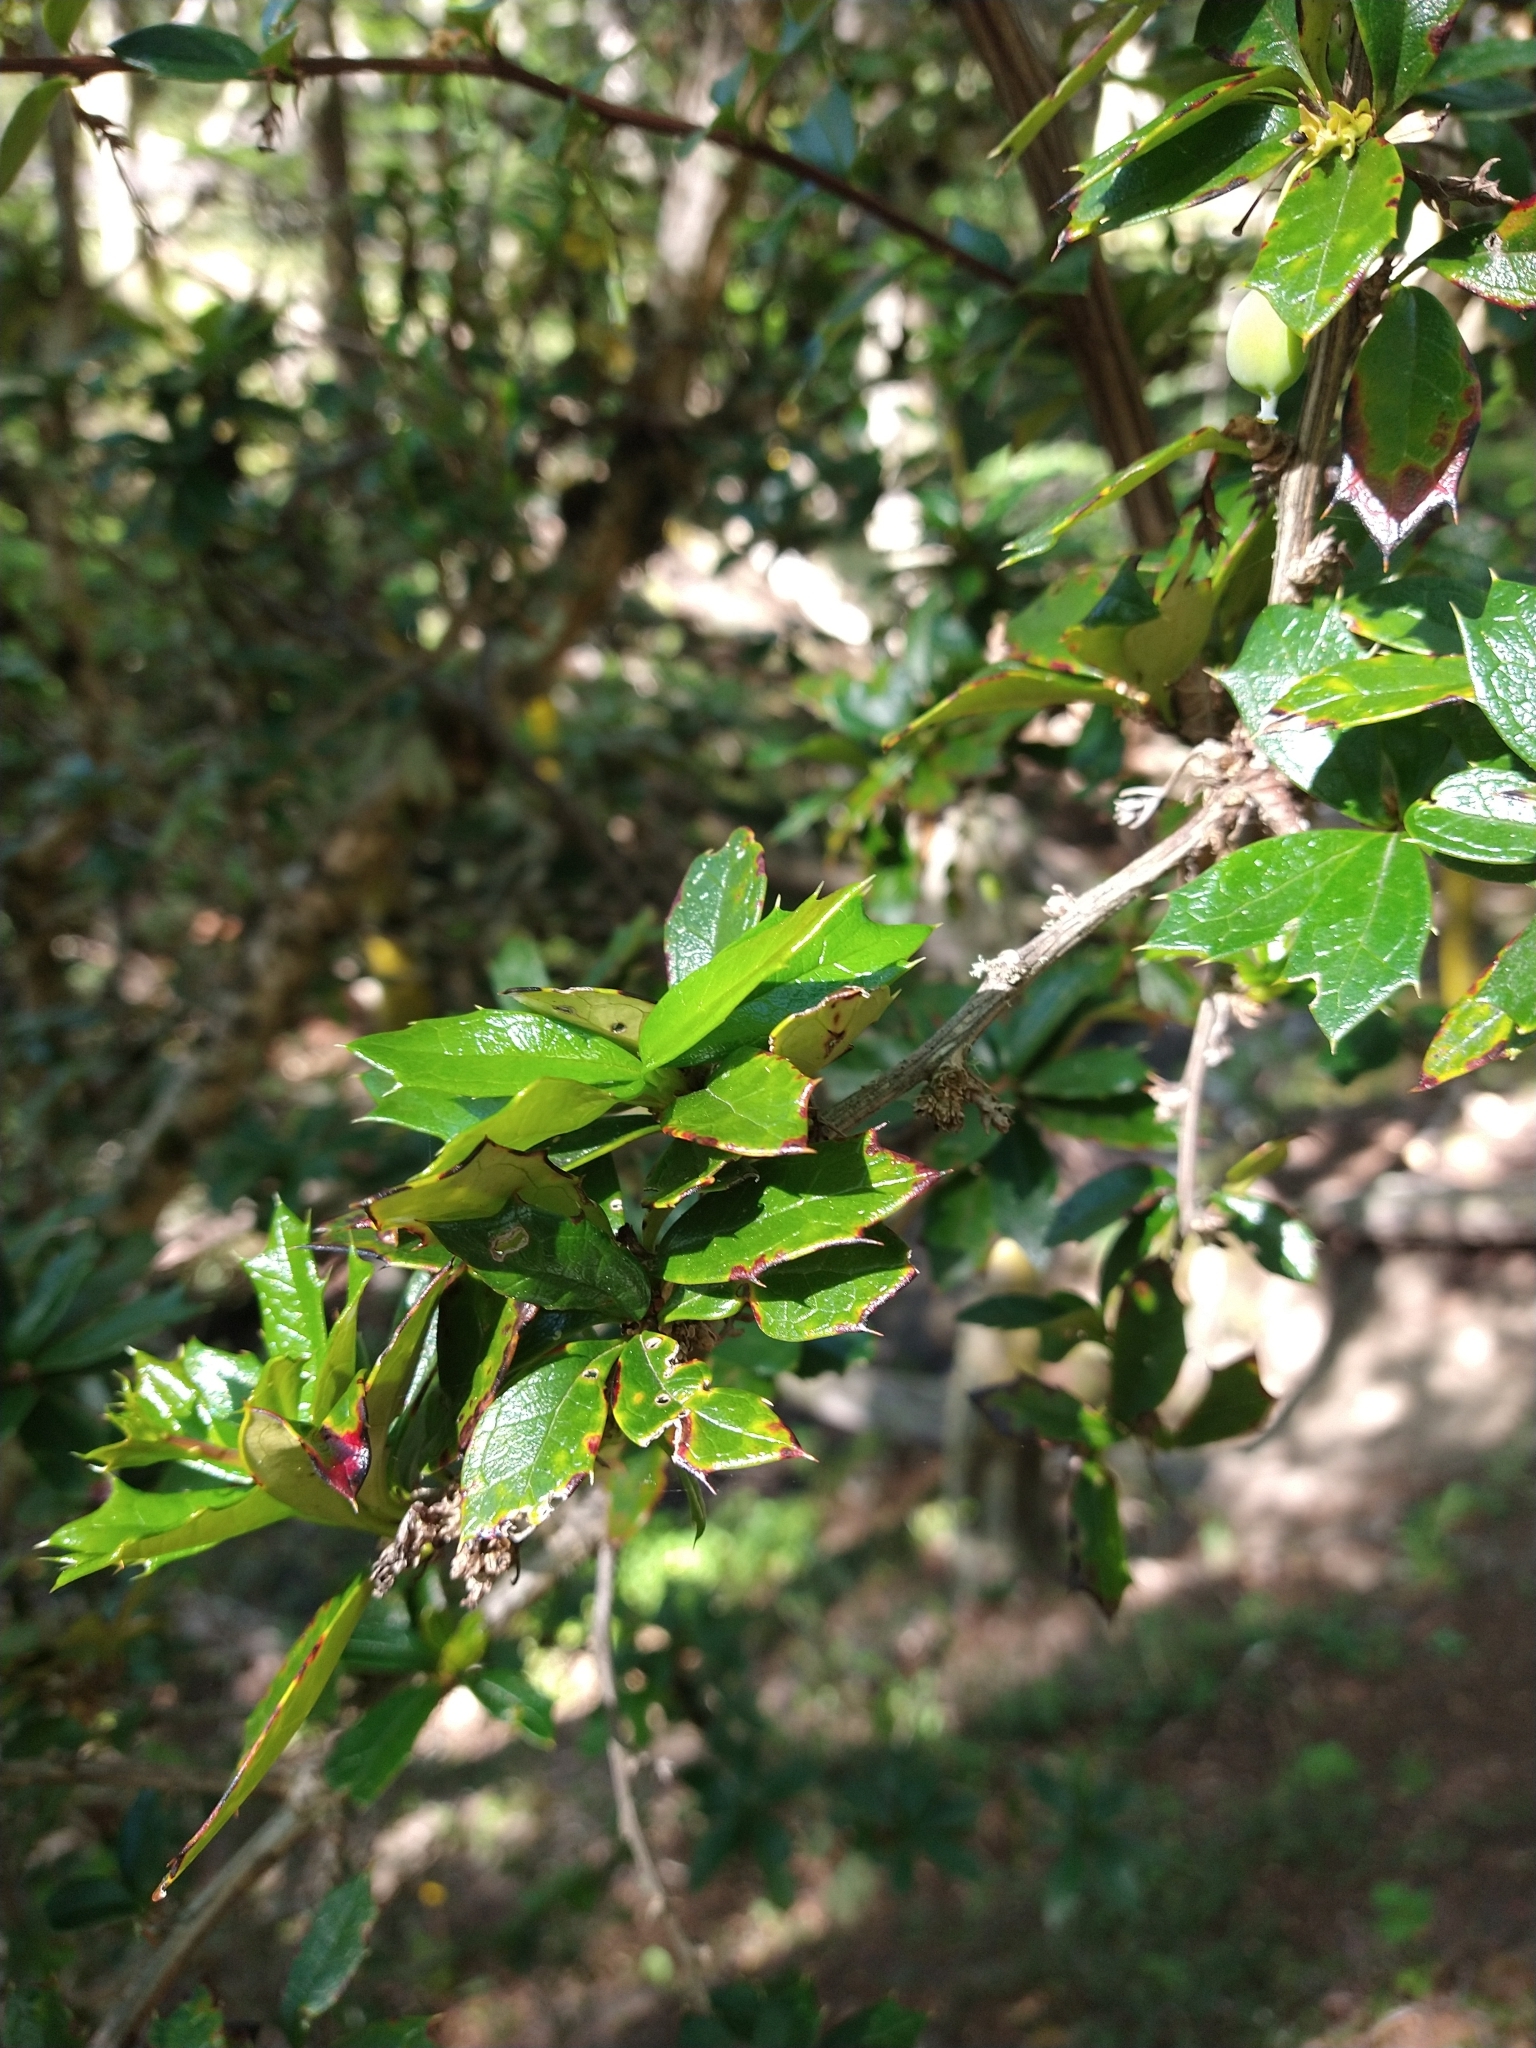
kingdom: Plantae
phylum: Tracheophyta
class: Magnoliopsida
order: Ranunculales
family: Berberidaceae
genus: Berberis
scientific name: Berberis ilicifolia
